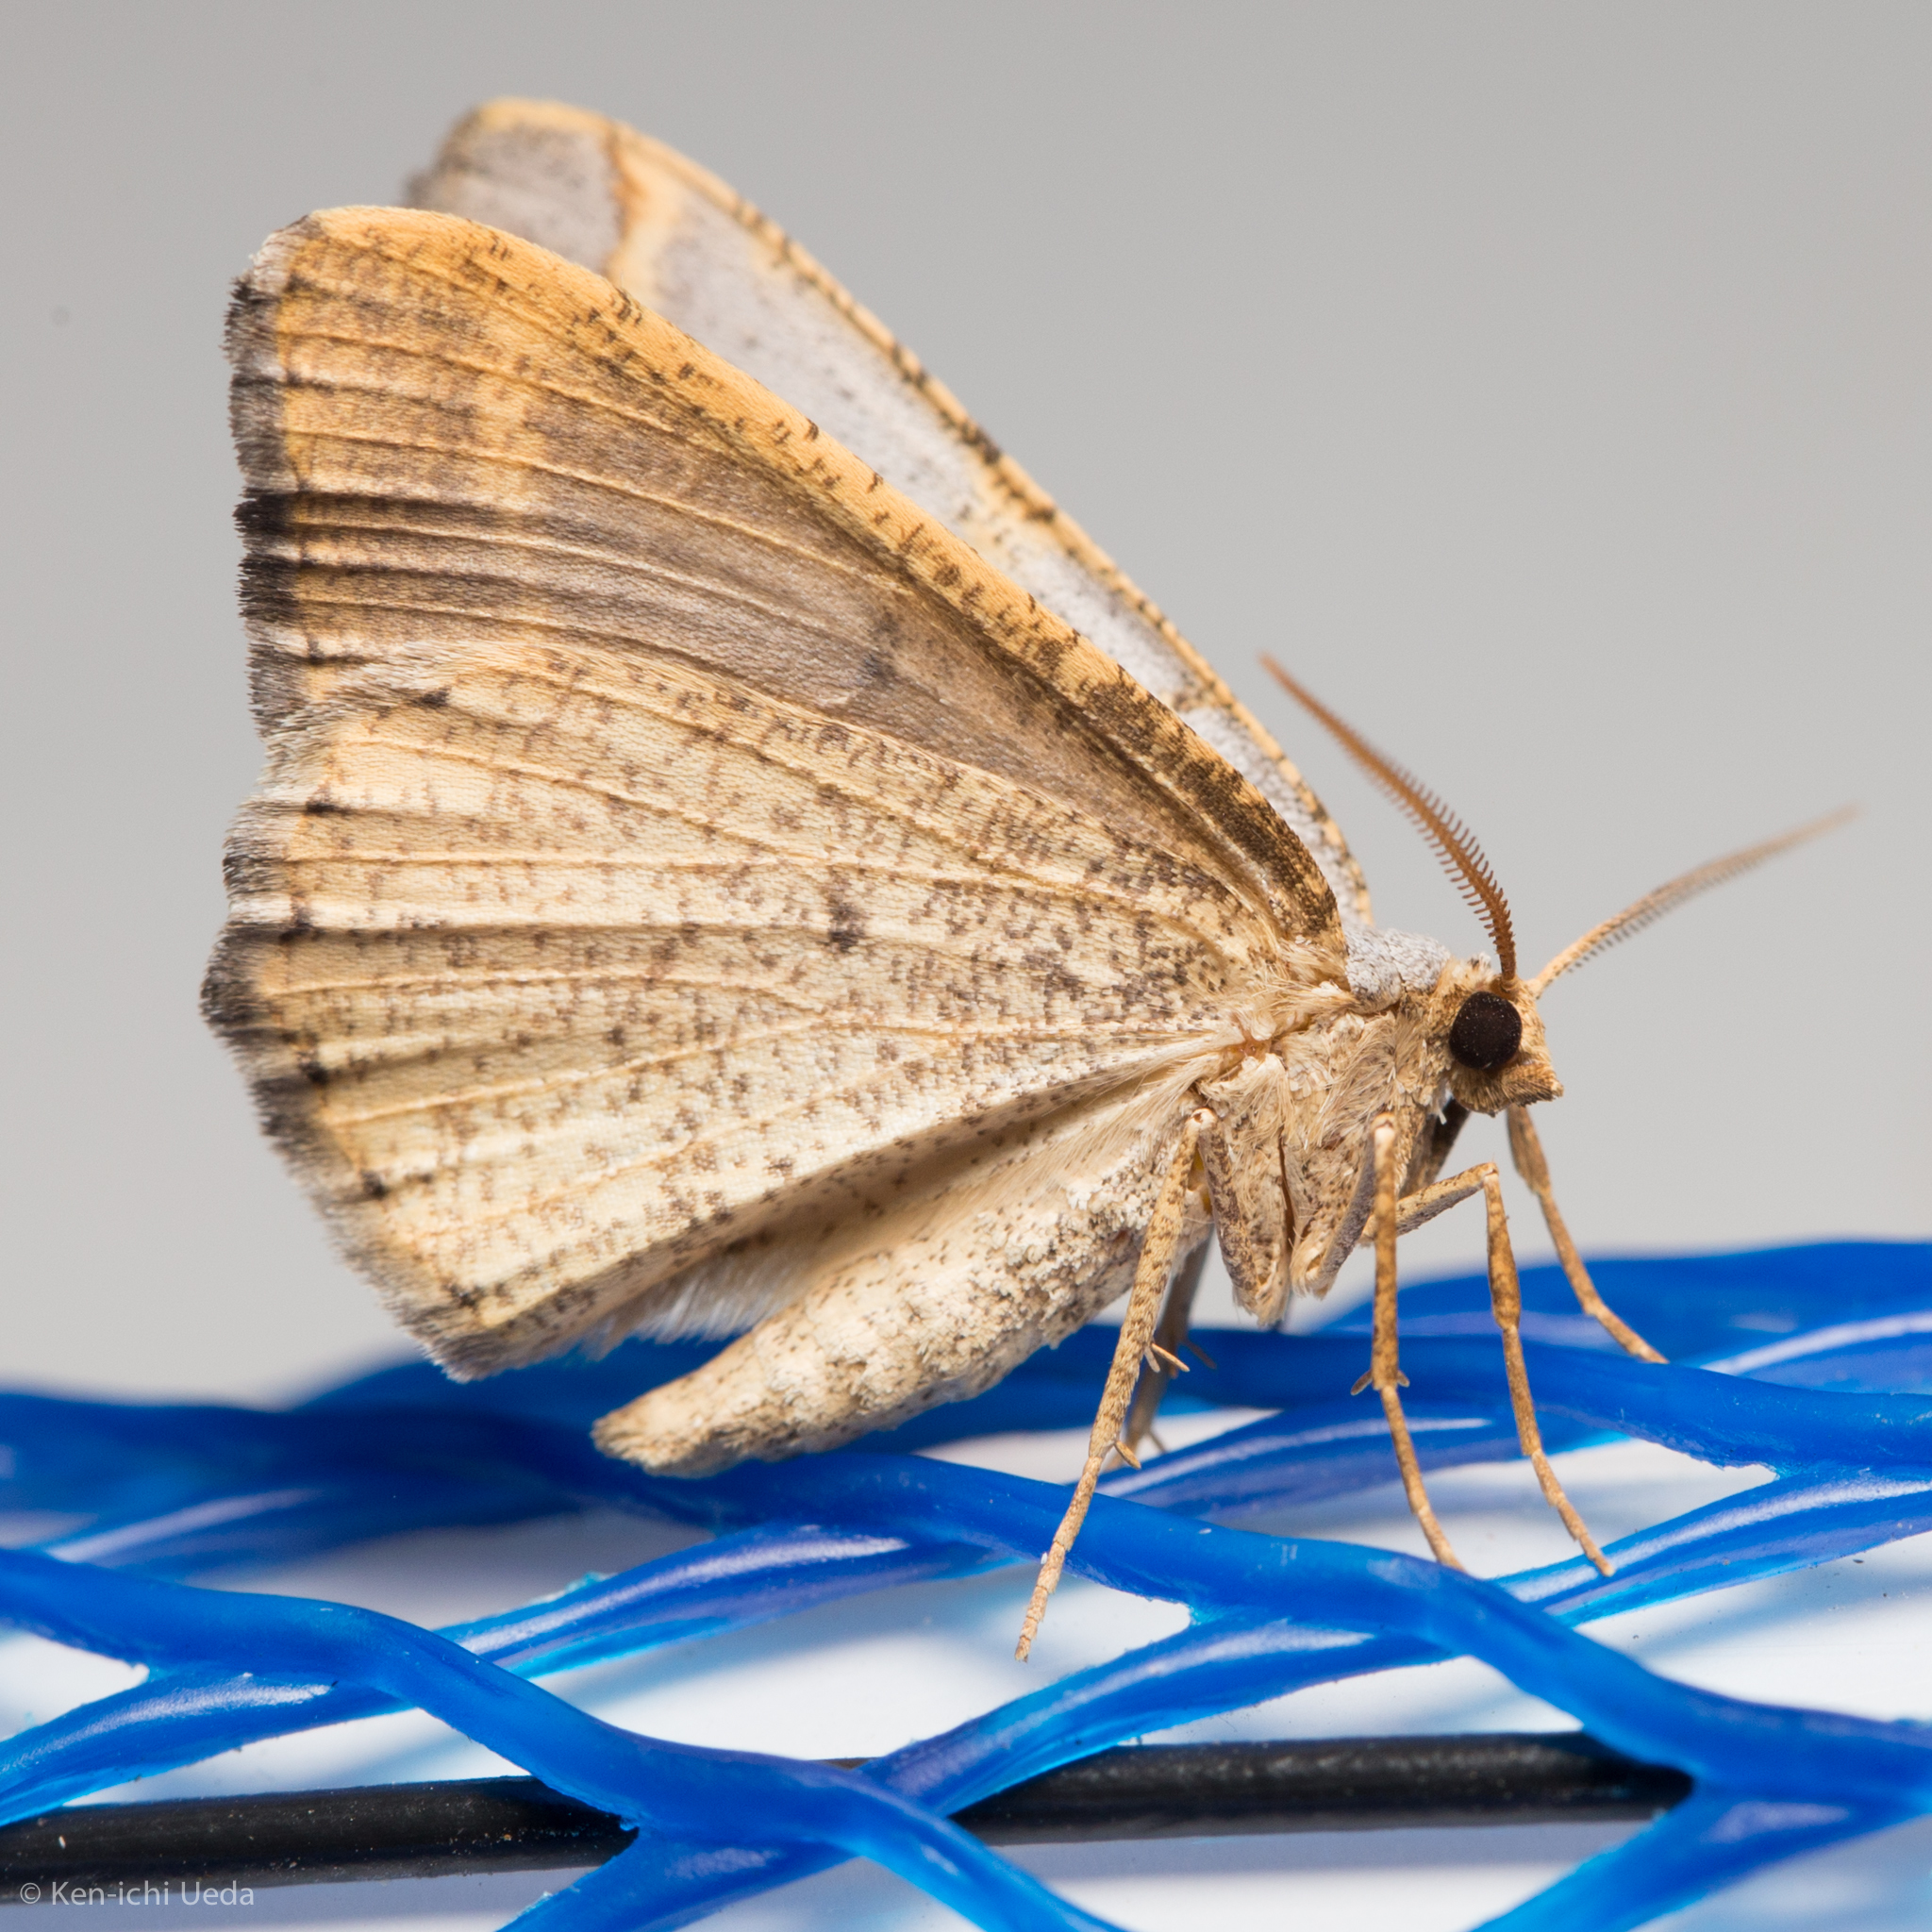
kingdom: Animalia
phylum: Arthropoda
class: Insecta
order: Lepidoptera
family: Geometridae
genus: Macaria
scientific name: Macaria guenearia
